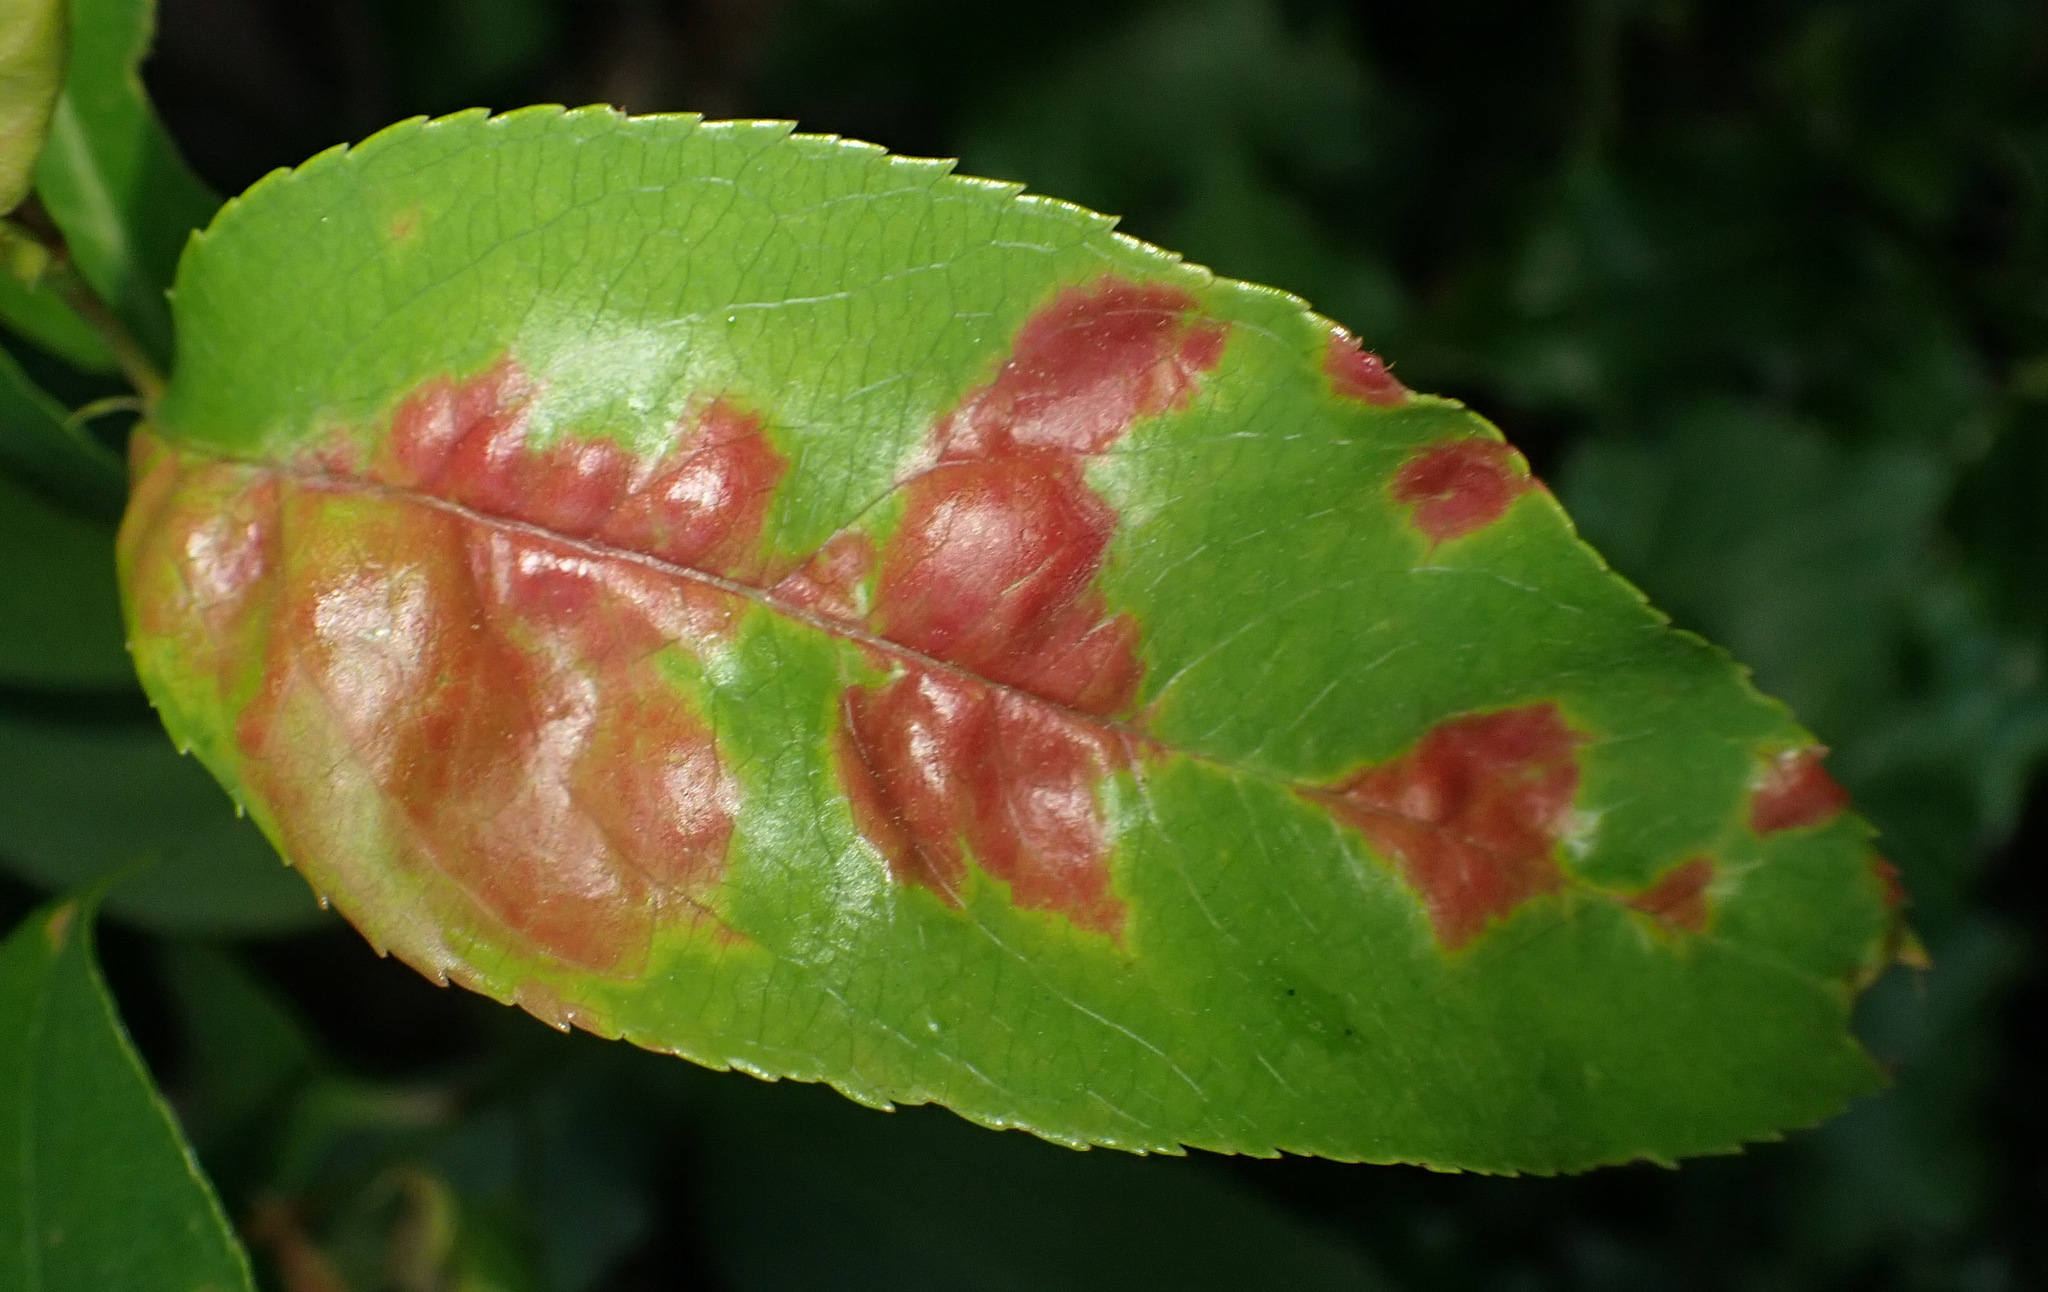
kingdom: Fungi
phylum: Ascomycota
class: Taphrinomycetes
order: Taphrinales
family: Taphrinaceae
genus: Taphrina
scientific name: Taphrina farlowii
